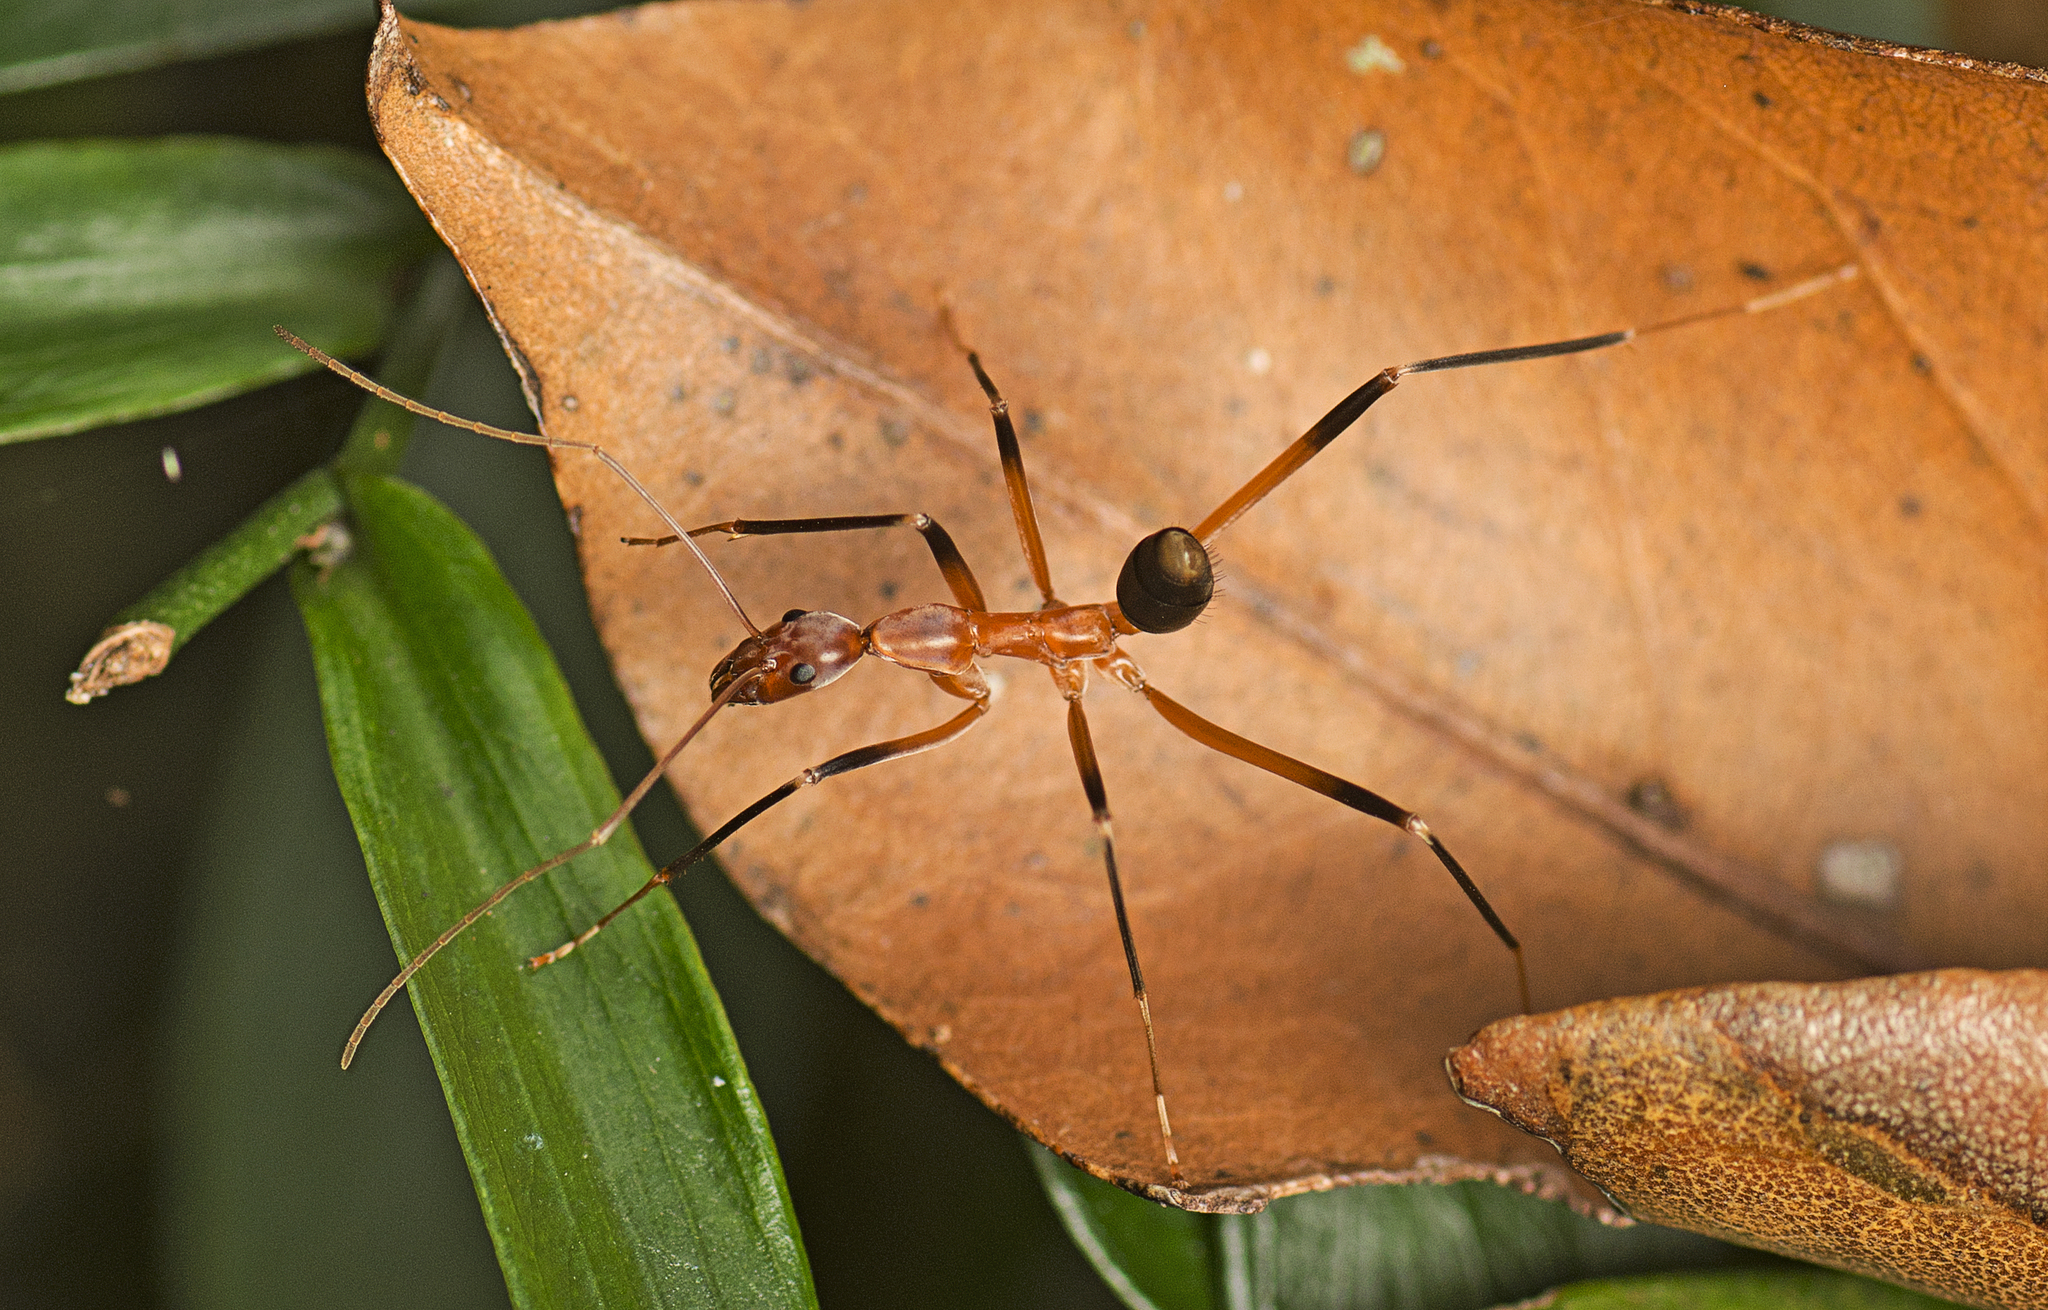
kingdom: Animalia
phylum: Arthropoda
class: Insecta
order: Hymenoptera
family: Formicidae
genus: Leptomyrmex
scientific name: Leptomyrmex cnemidatus
